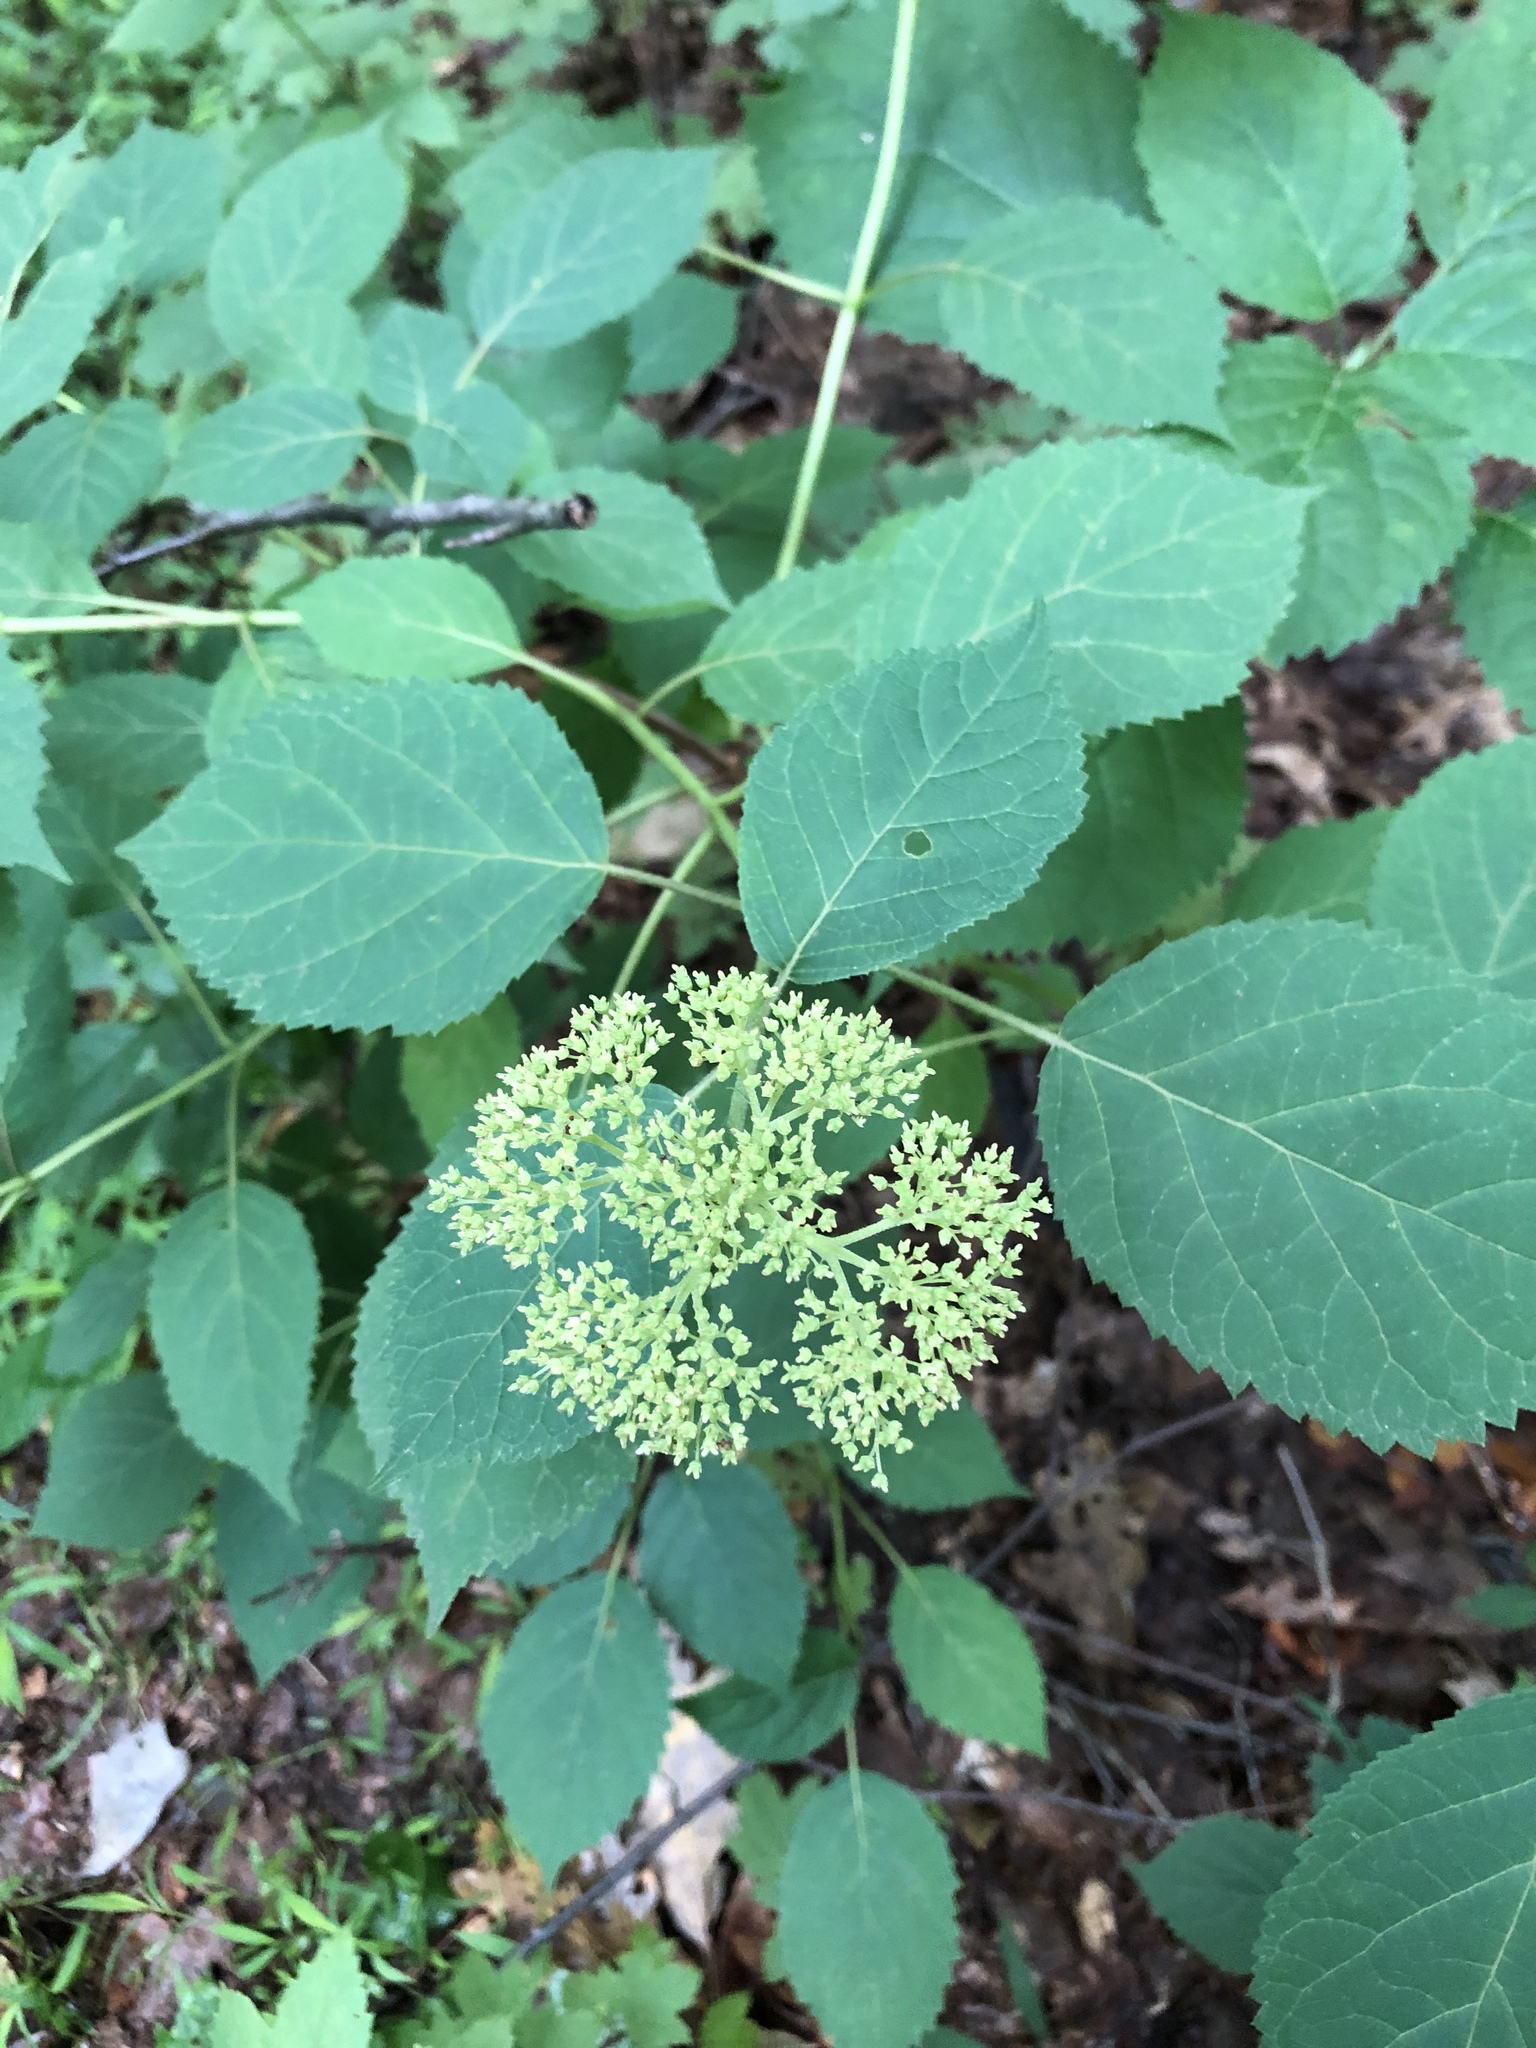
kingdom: Plantae
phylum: Tracheophyta
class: Magnoliopsida
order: Cornales
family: Hydrangeaceae
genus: Hydrangea
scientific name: Hydrangea arborescens
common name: Sevenbark
